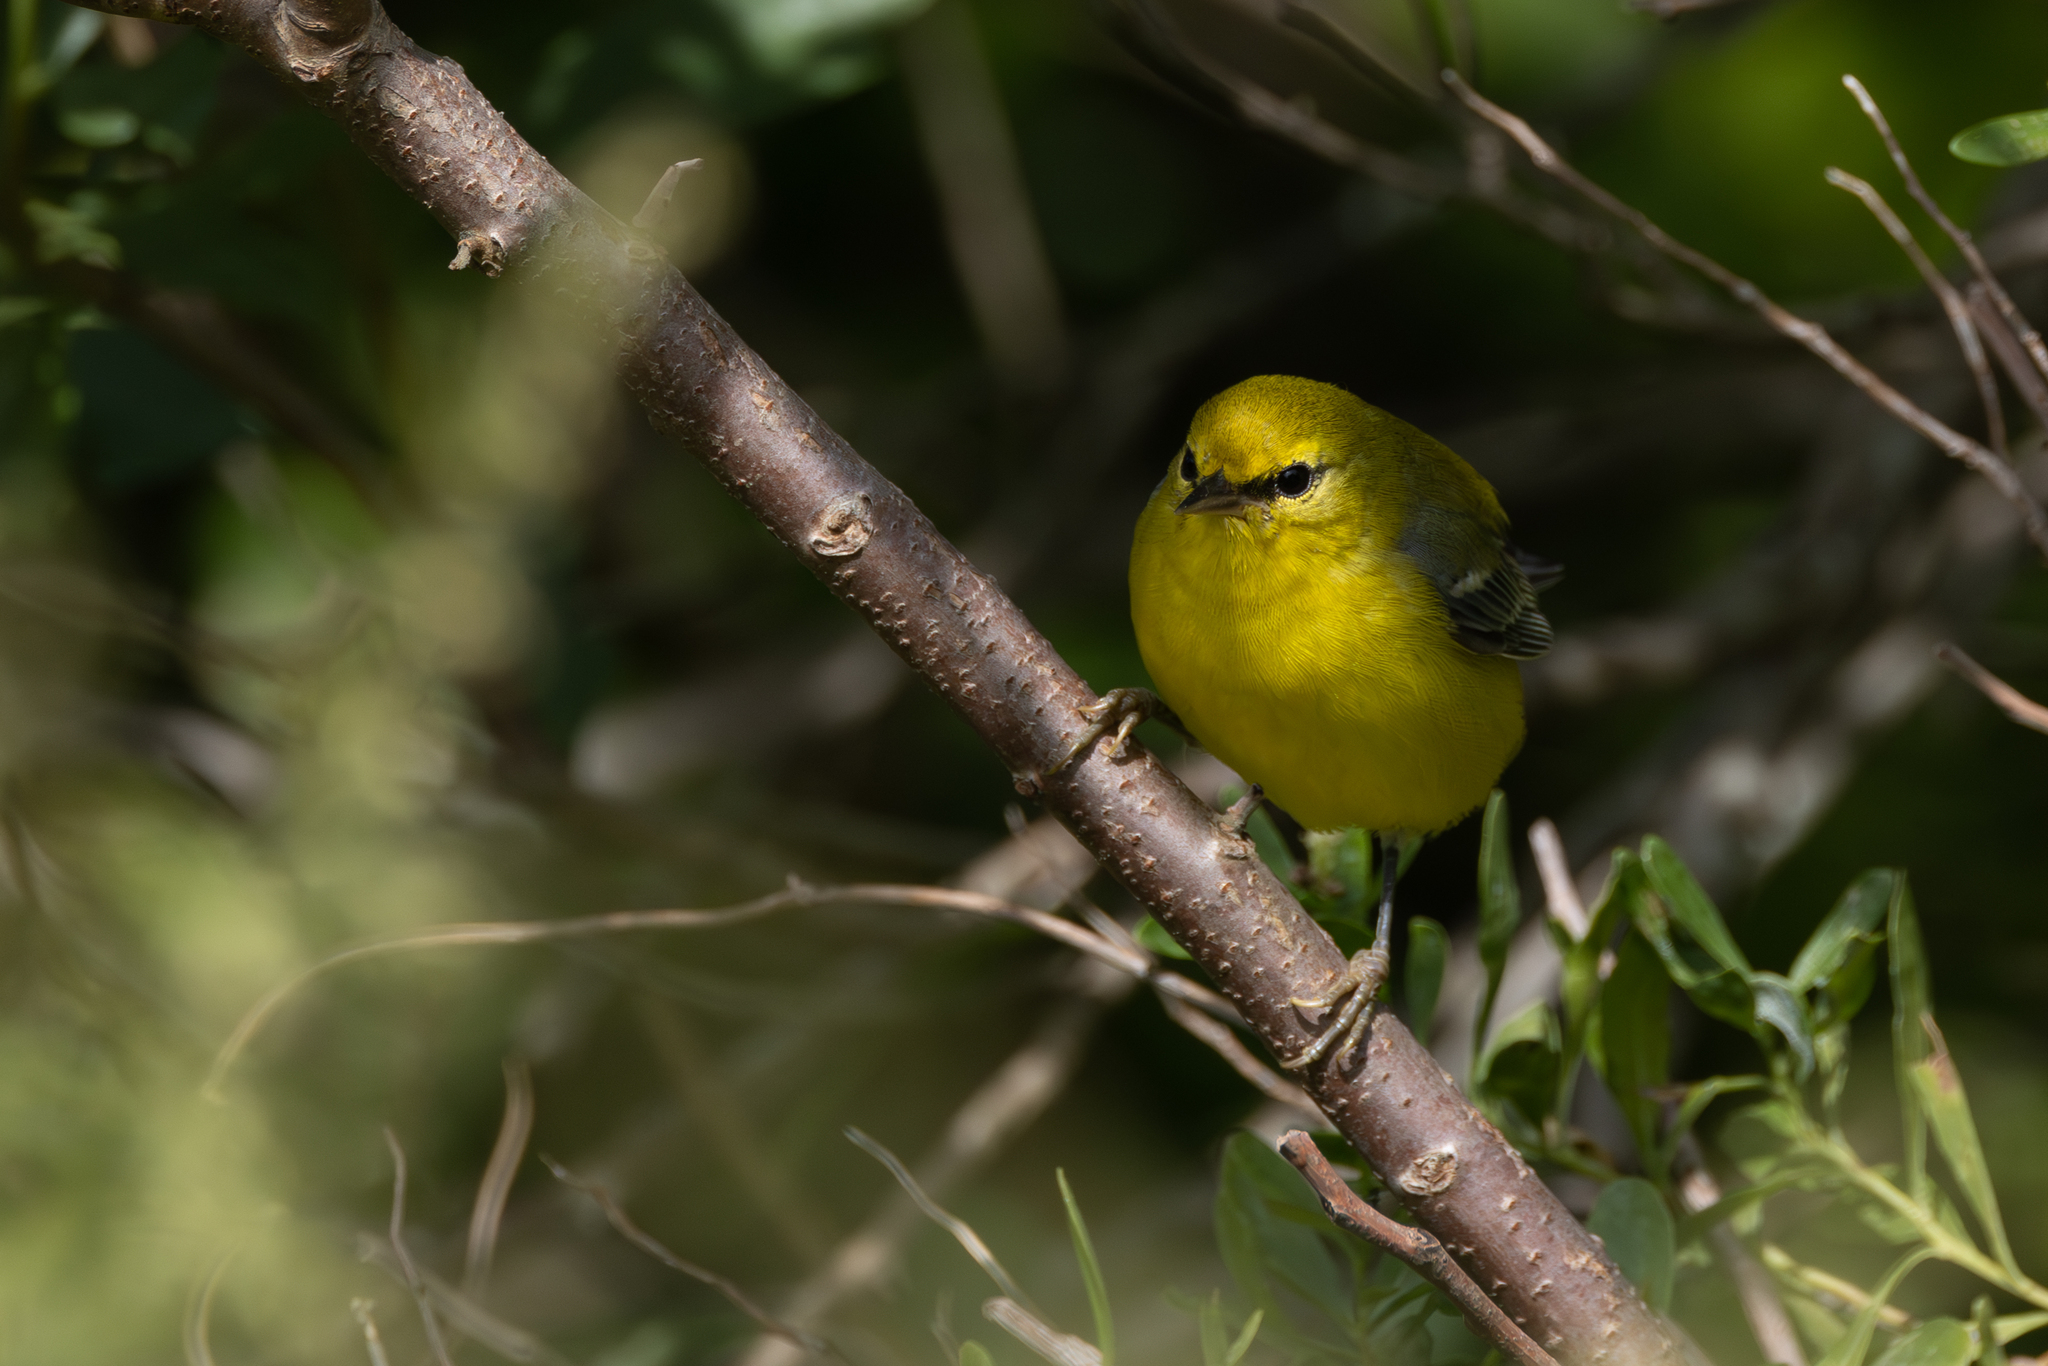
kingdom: Animalia
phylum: Chordata
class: Aves
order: Passeriformes
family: Parulidae
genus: Vermivora
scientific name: Vermivora cyanoptera
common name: Blue-winged warbler
